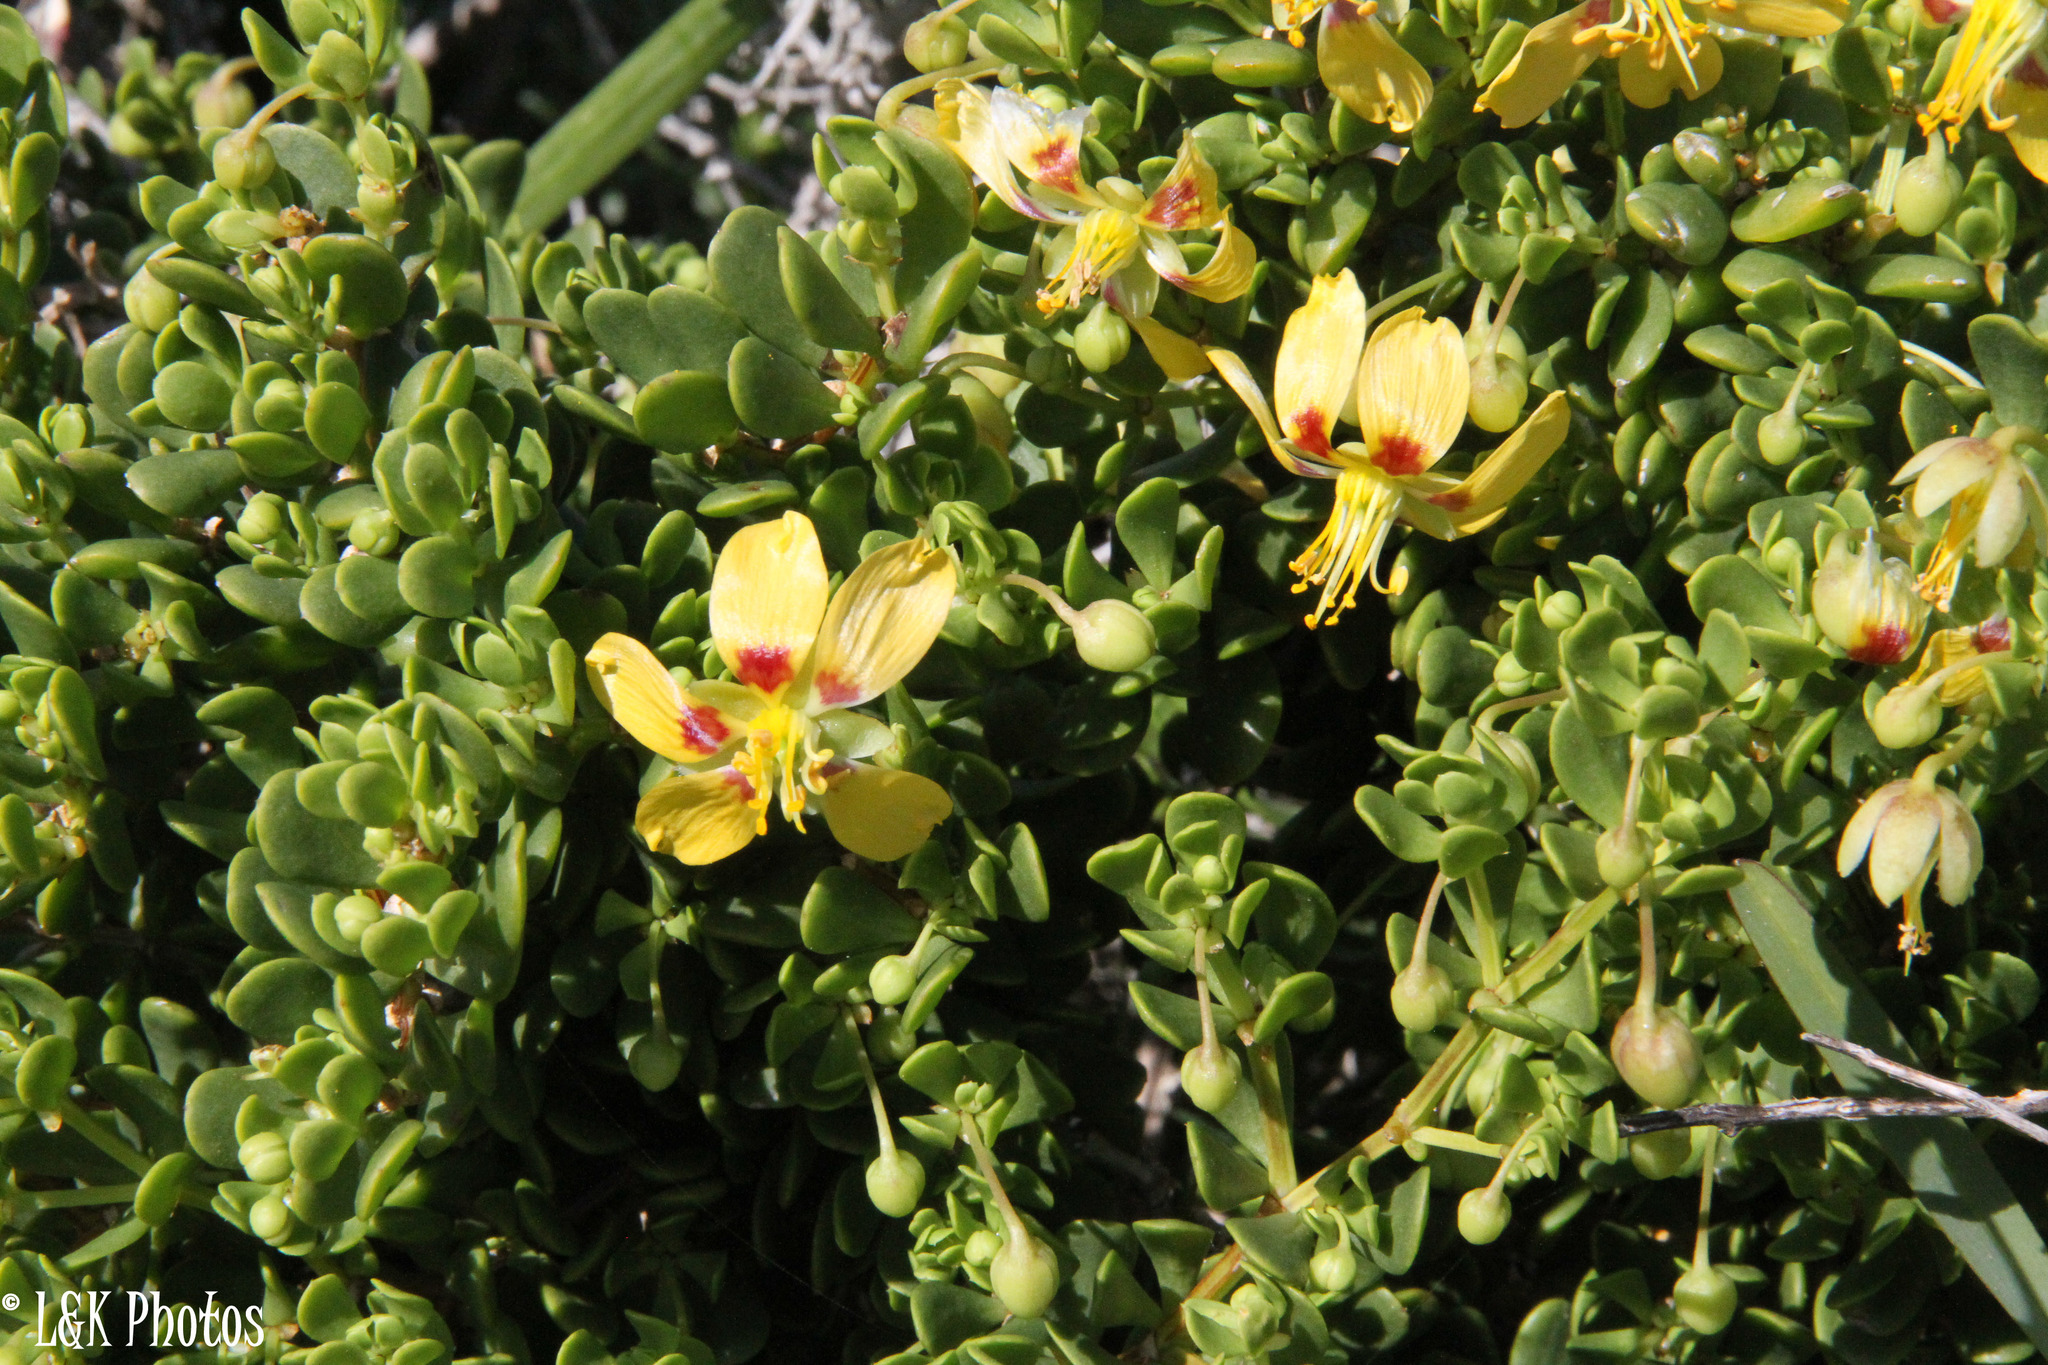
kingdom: Plantae
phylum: Tracheophyta
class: Magnoliopsida
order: Zygophyllales
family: Zygophyllaceae
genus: Roepera
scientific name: Roepera flexuosa
